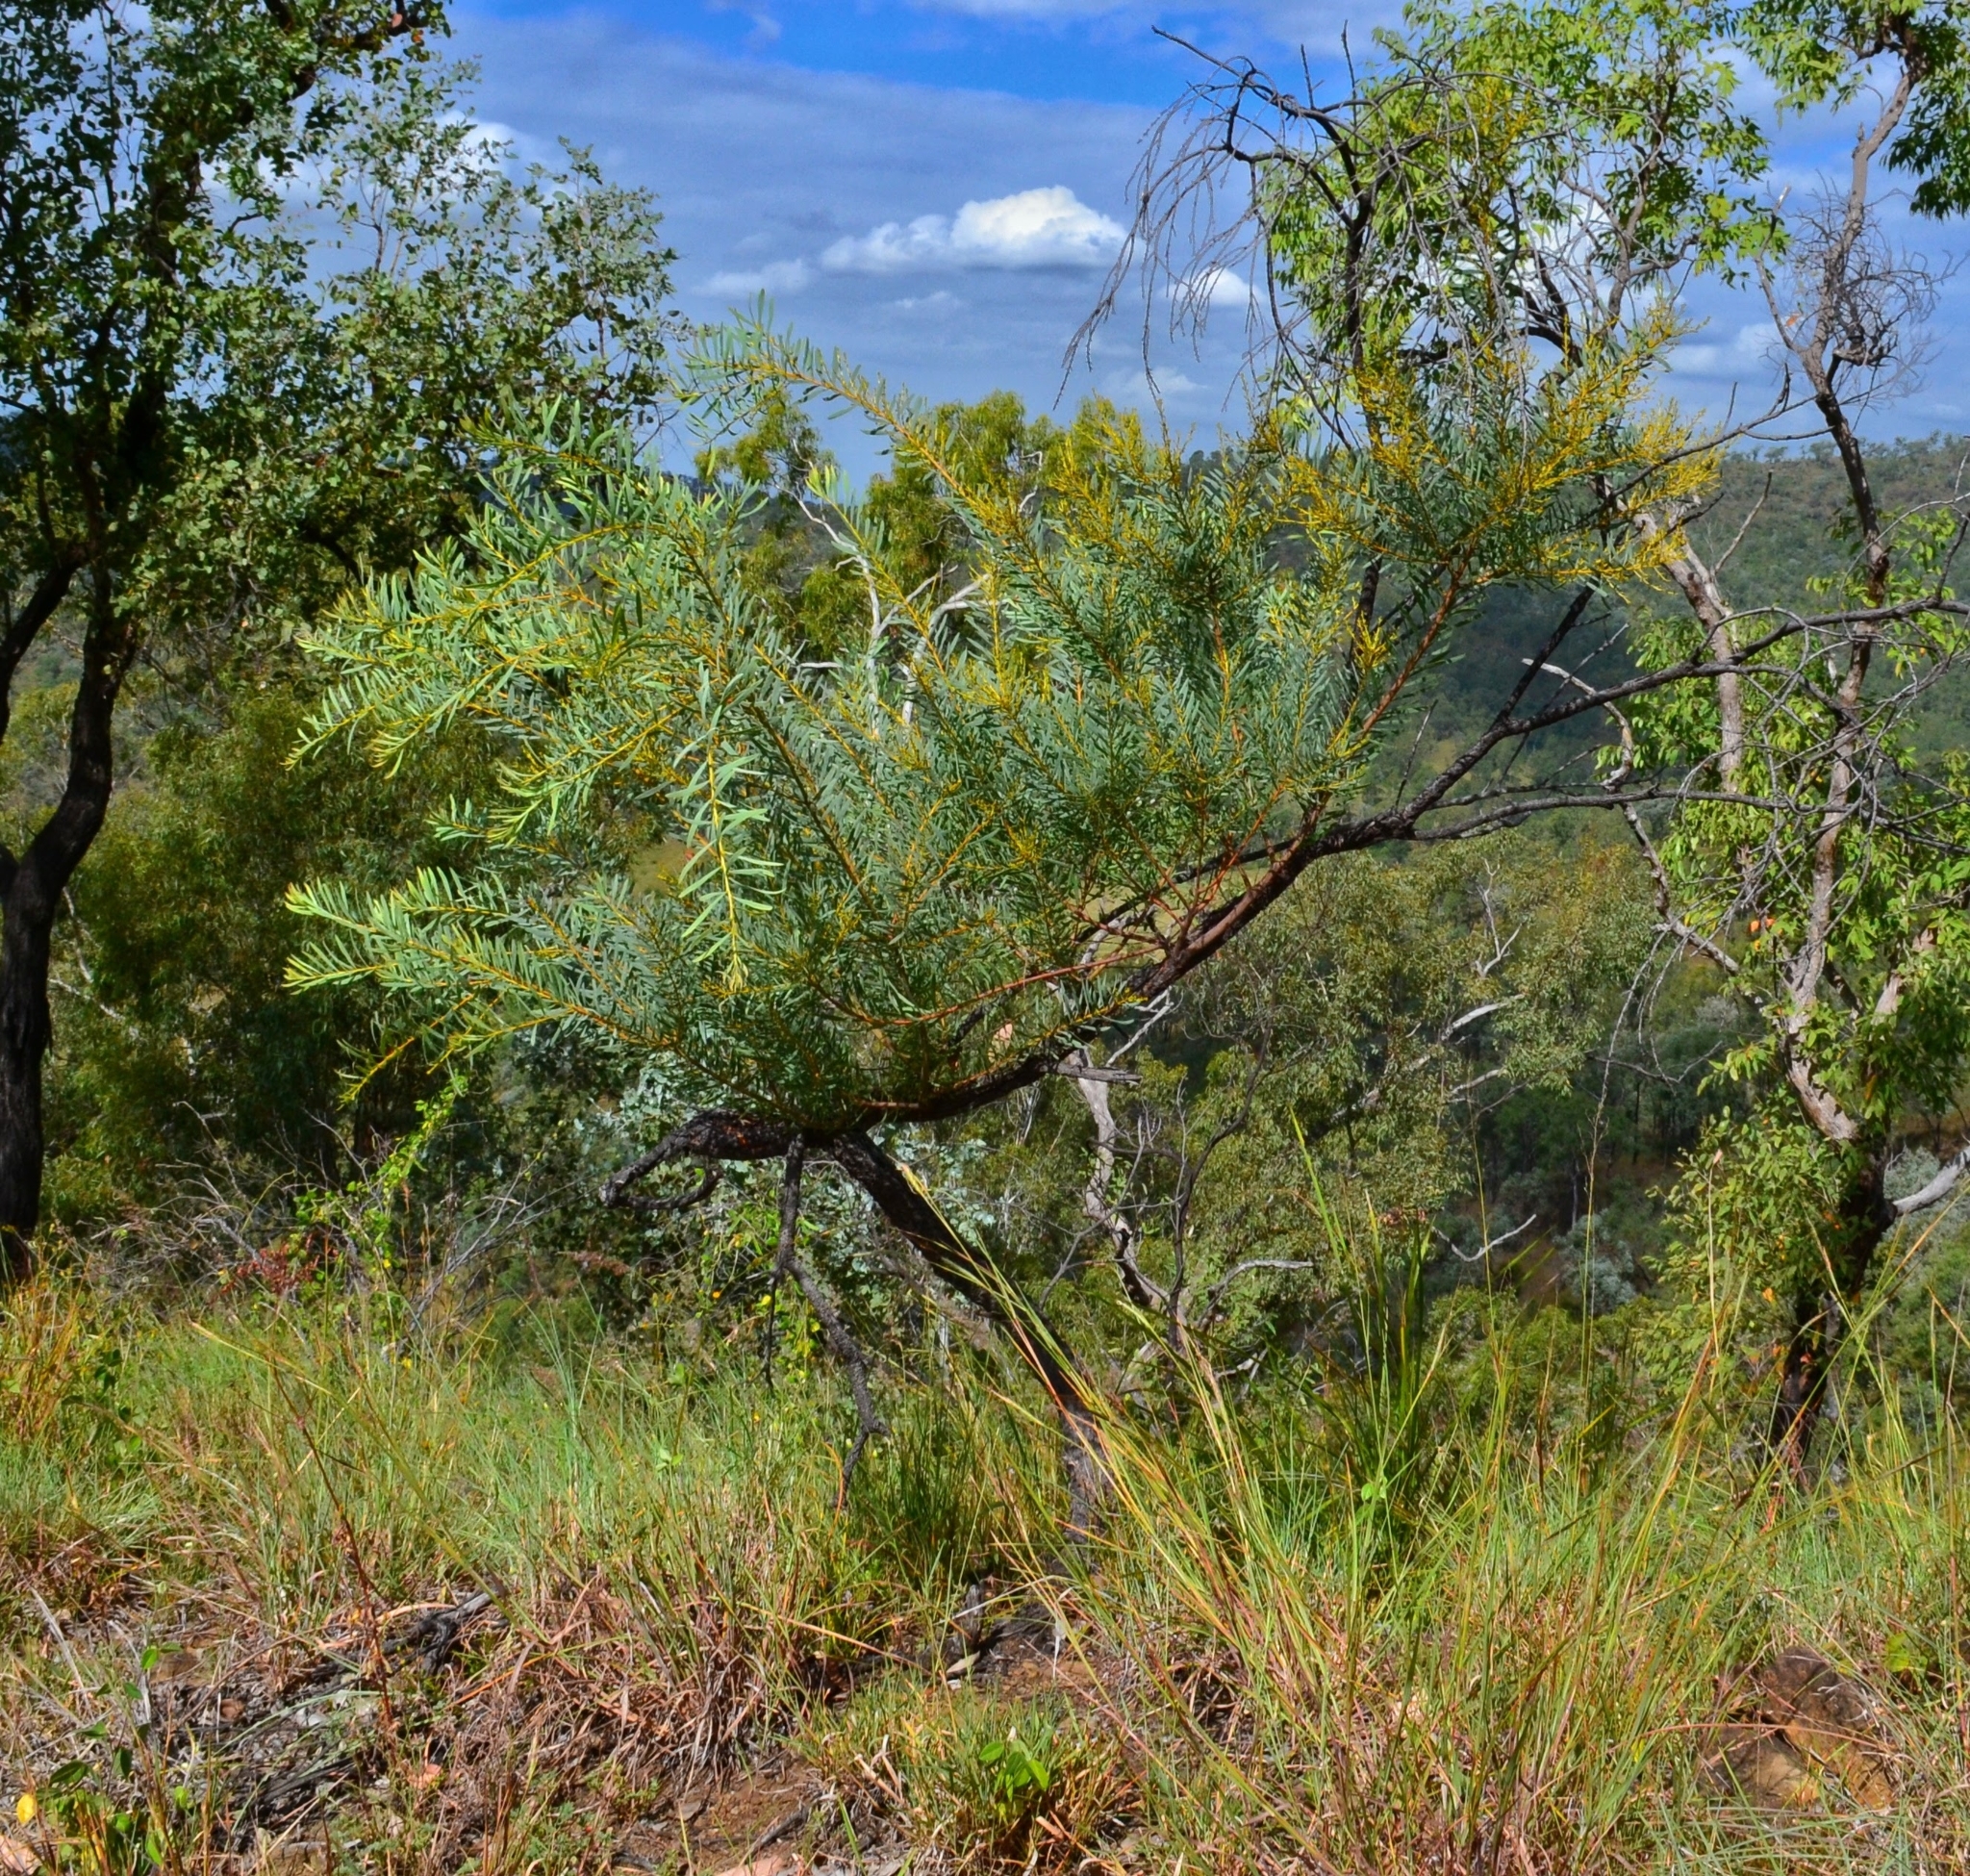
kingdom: Plantae
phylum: Tracheophyta
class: Magnoliopsida
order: Fabales
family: Fabaceae
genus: Acacia
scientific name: Acacia decora
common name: Showy wattle
